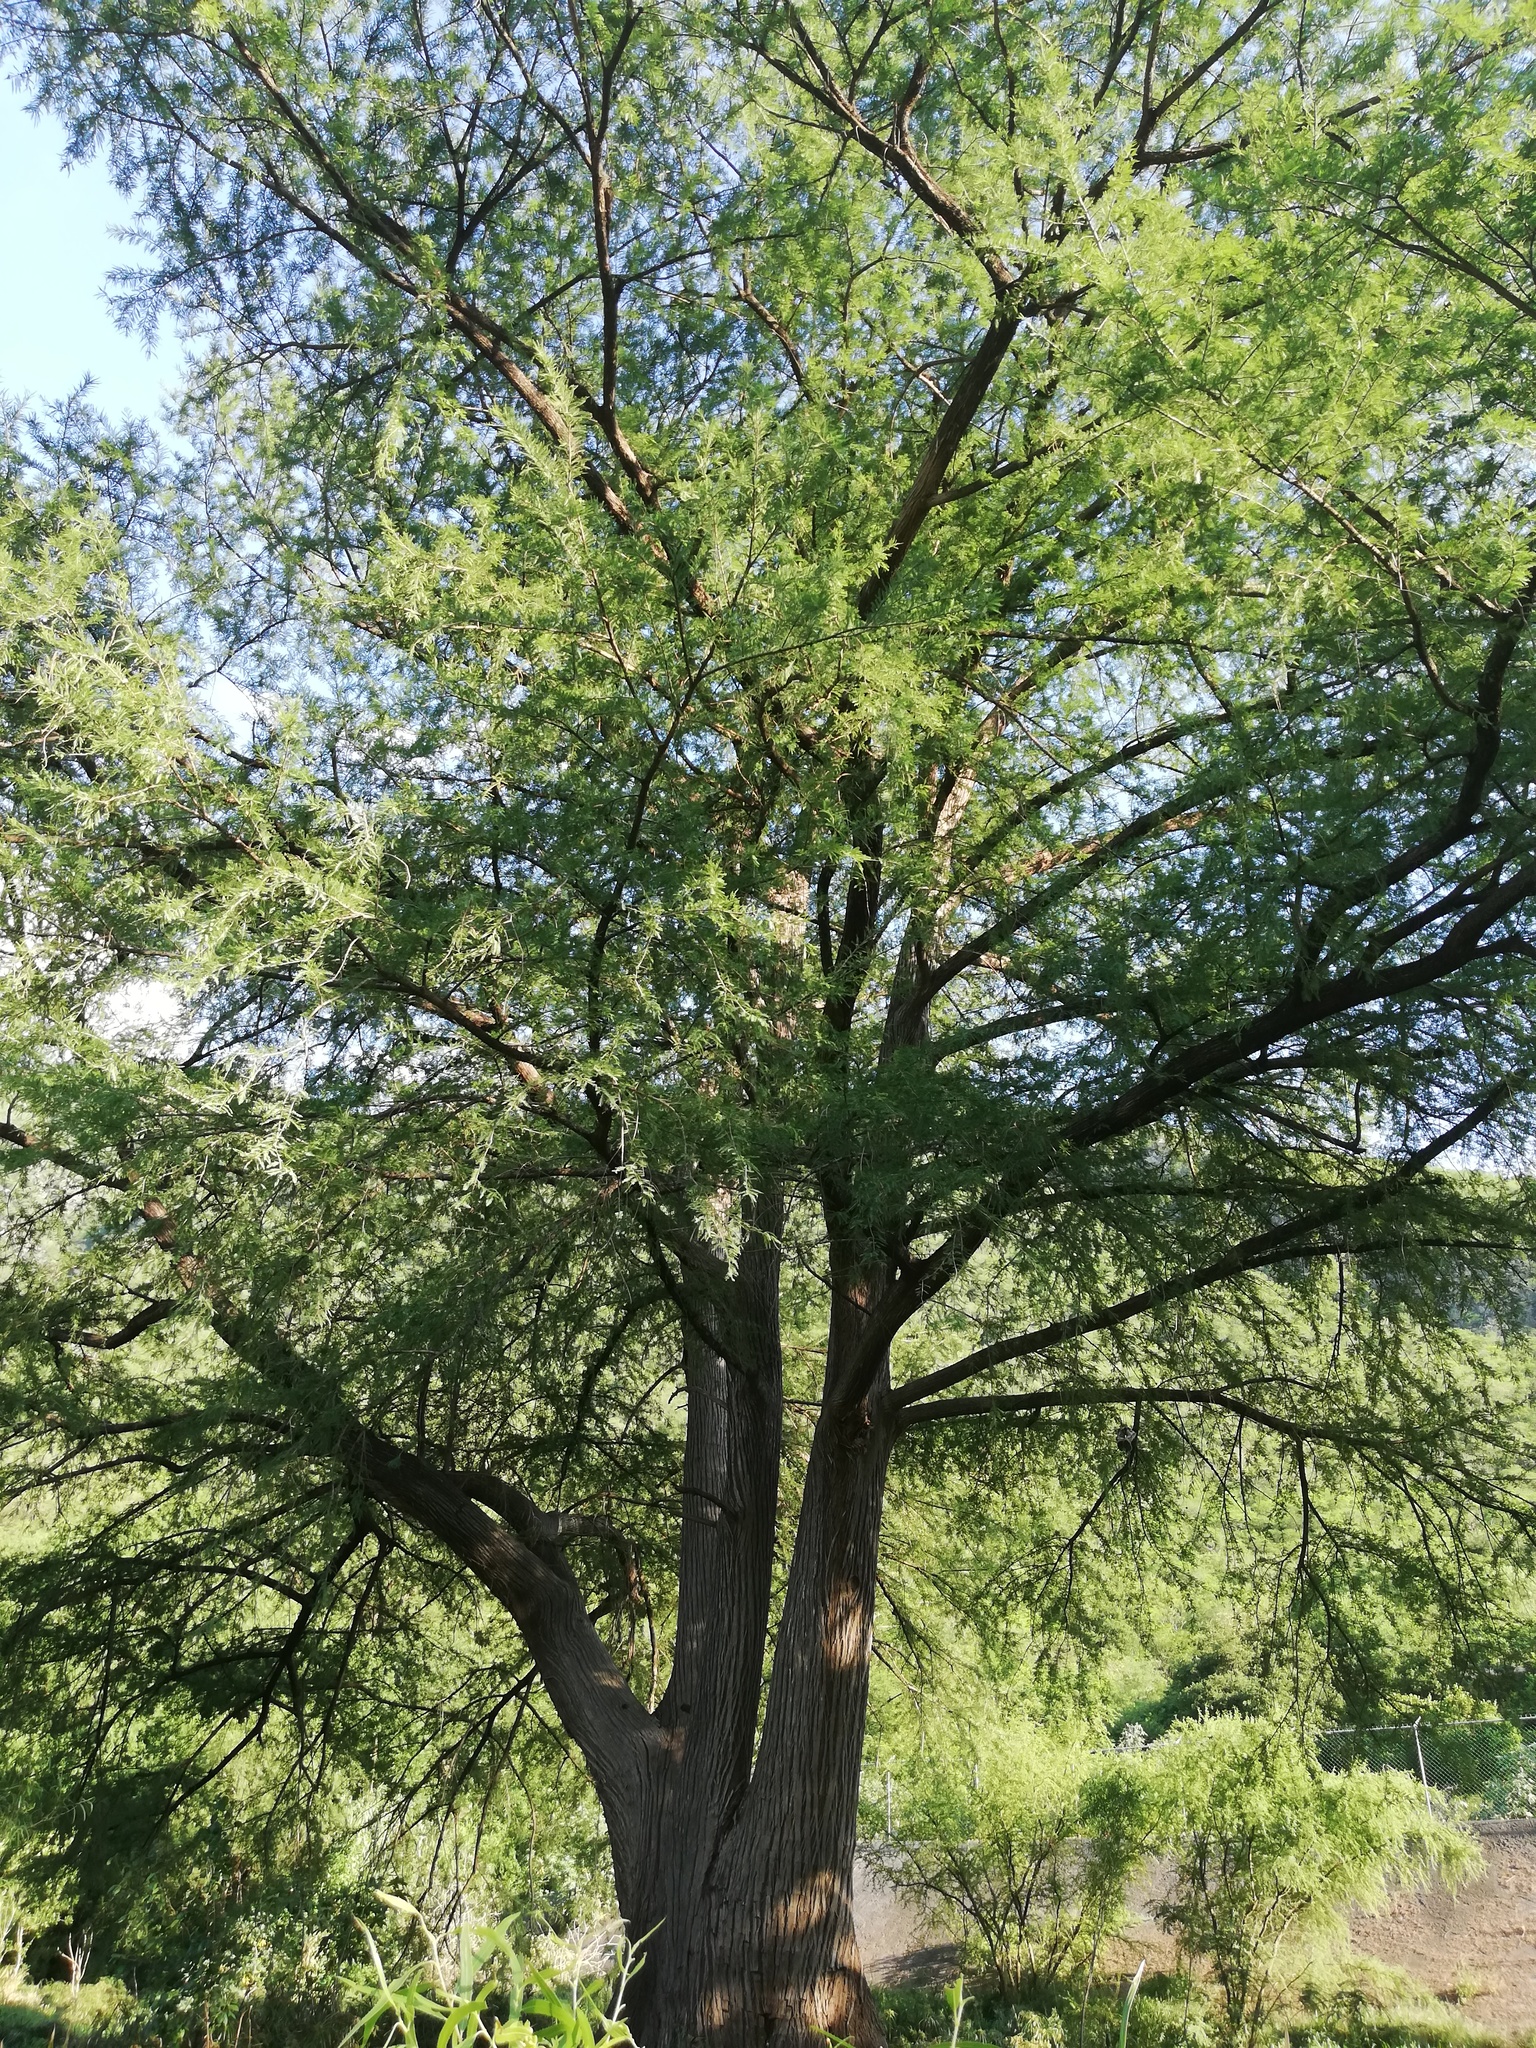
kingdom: Plantae
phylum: Tracheophyta
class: Pinopsida
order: Pinales
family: Cupressaceae
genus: Taxodium
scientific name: Taxodium mucronatum
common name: Montezume bald cypress
